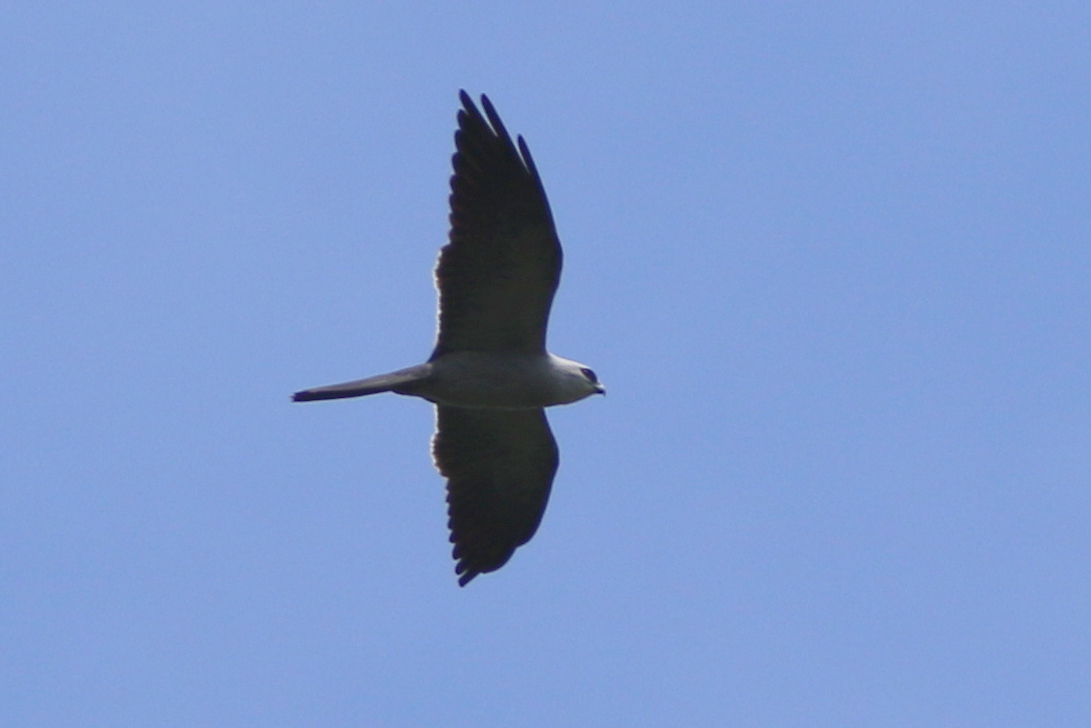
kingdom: Animalia
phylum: Chordata
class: Aves
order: Accipitriformes
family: Accipitridae
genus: Ictinia
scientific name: Ictinia mississippiensis
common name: Mississippi kite
